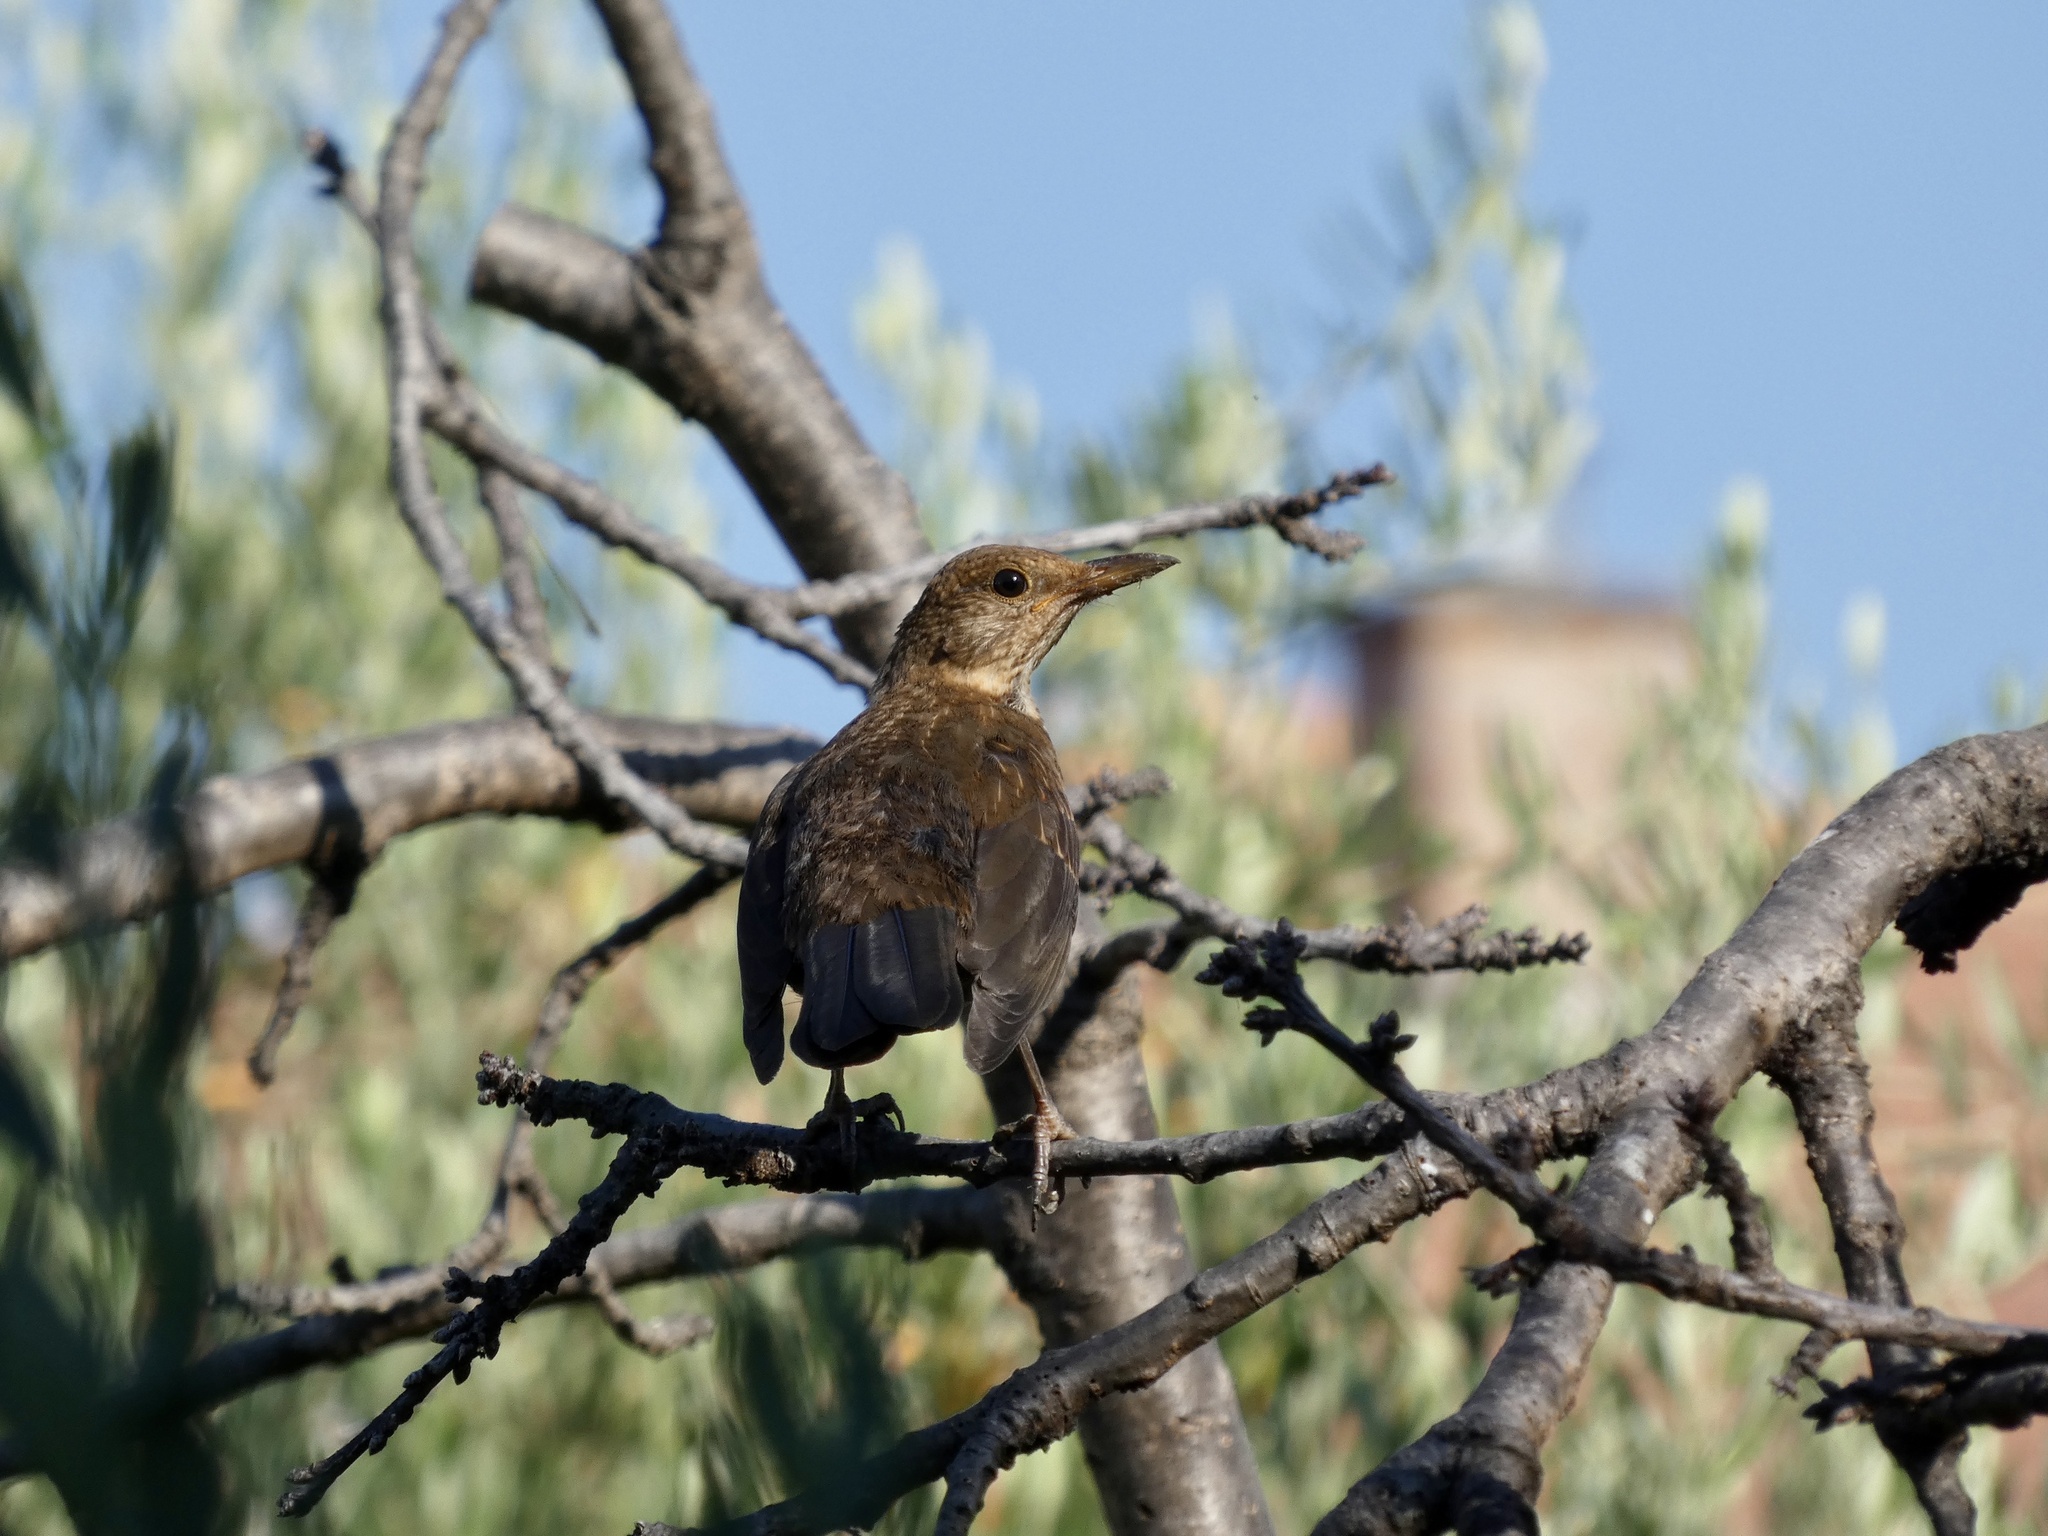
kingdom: Animalia
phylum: Chordata
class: Aves
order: Passeriformes
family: Muscicapidae
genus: Monticola
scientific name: Monticola solitarius
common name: Blue rock thrush
